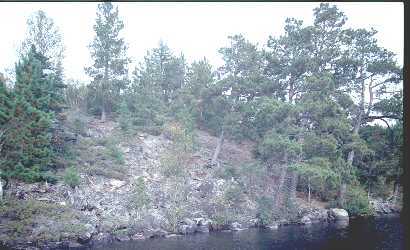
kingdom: Plantae
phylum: Tracheophyta
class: Pinopsida
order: Pinales
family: Pinaceae
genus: Pinus
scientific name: Pinus resinosa
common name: Norway pine
